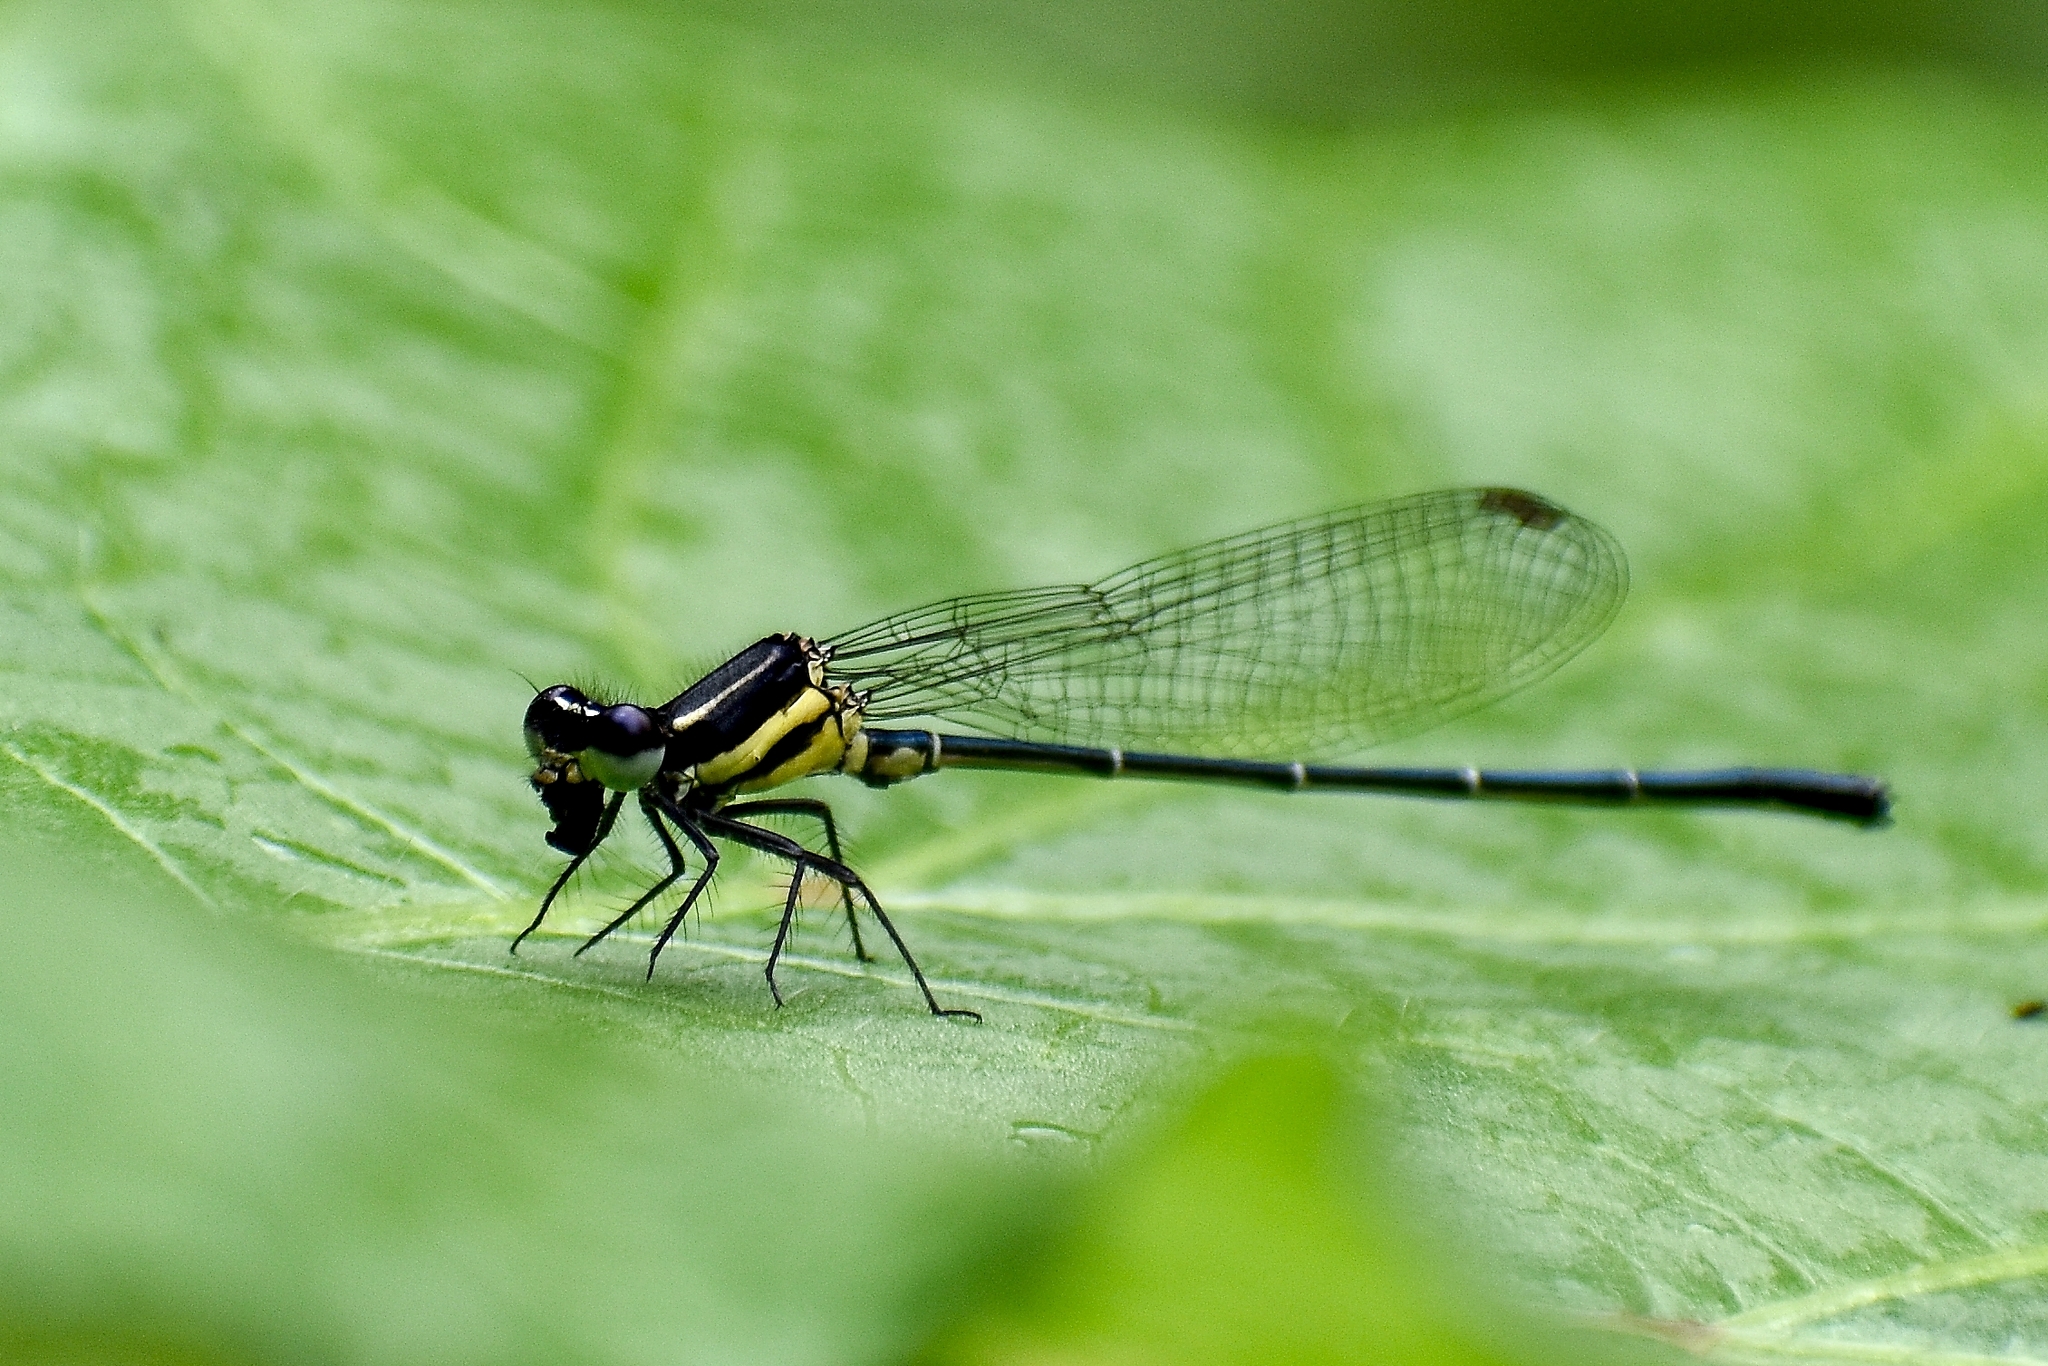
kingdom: Animalia
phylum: Arthropoda
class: Insecta
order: Odonata
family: Platycnemididae
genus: Onychargia
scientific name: Onychargia atrocyana
